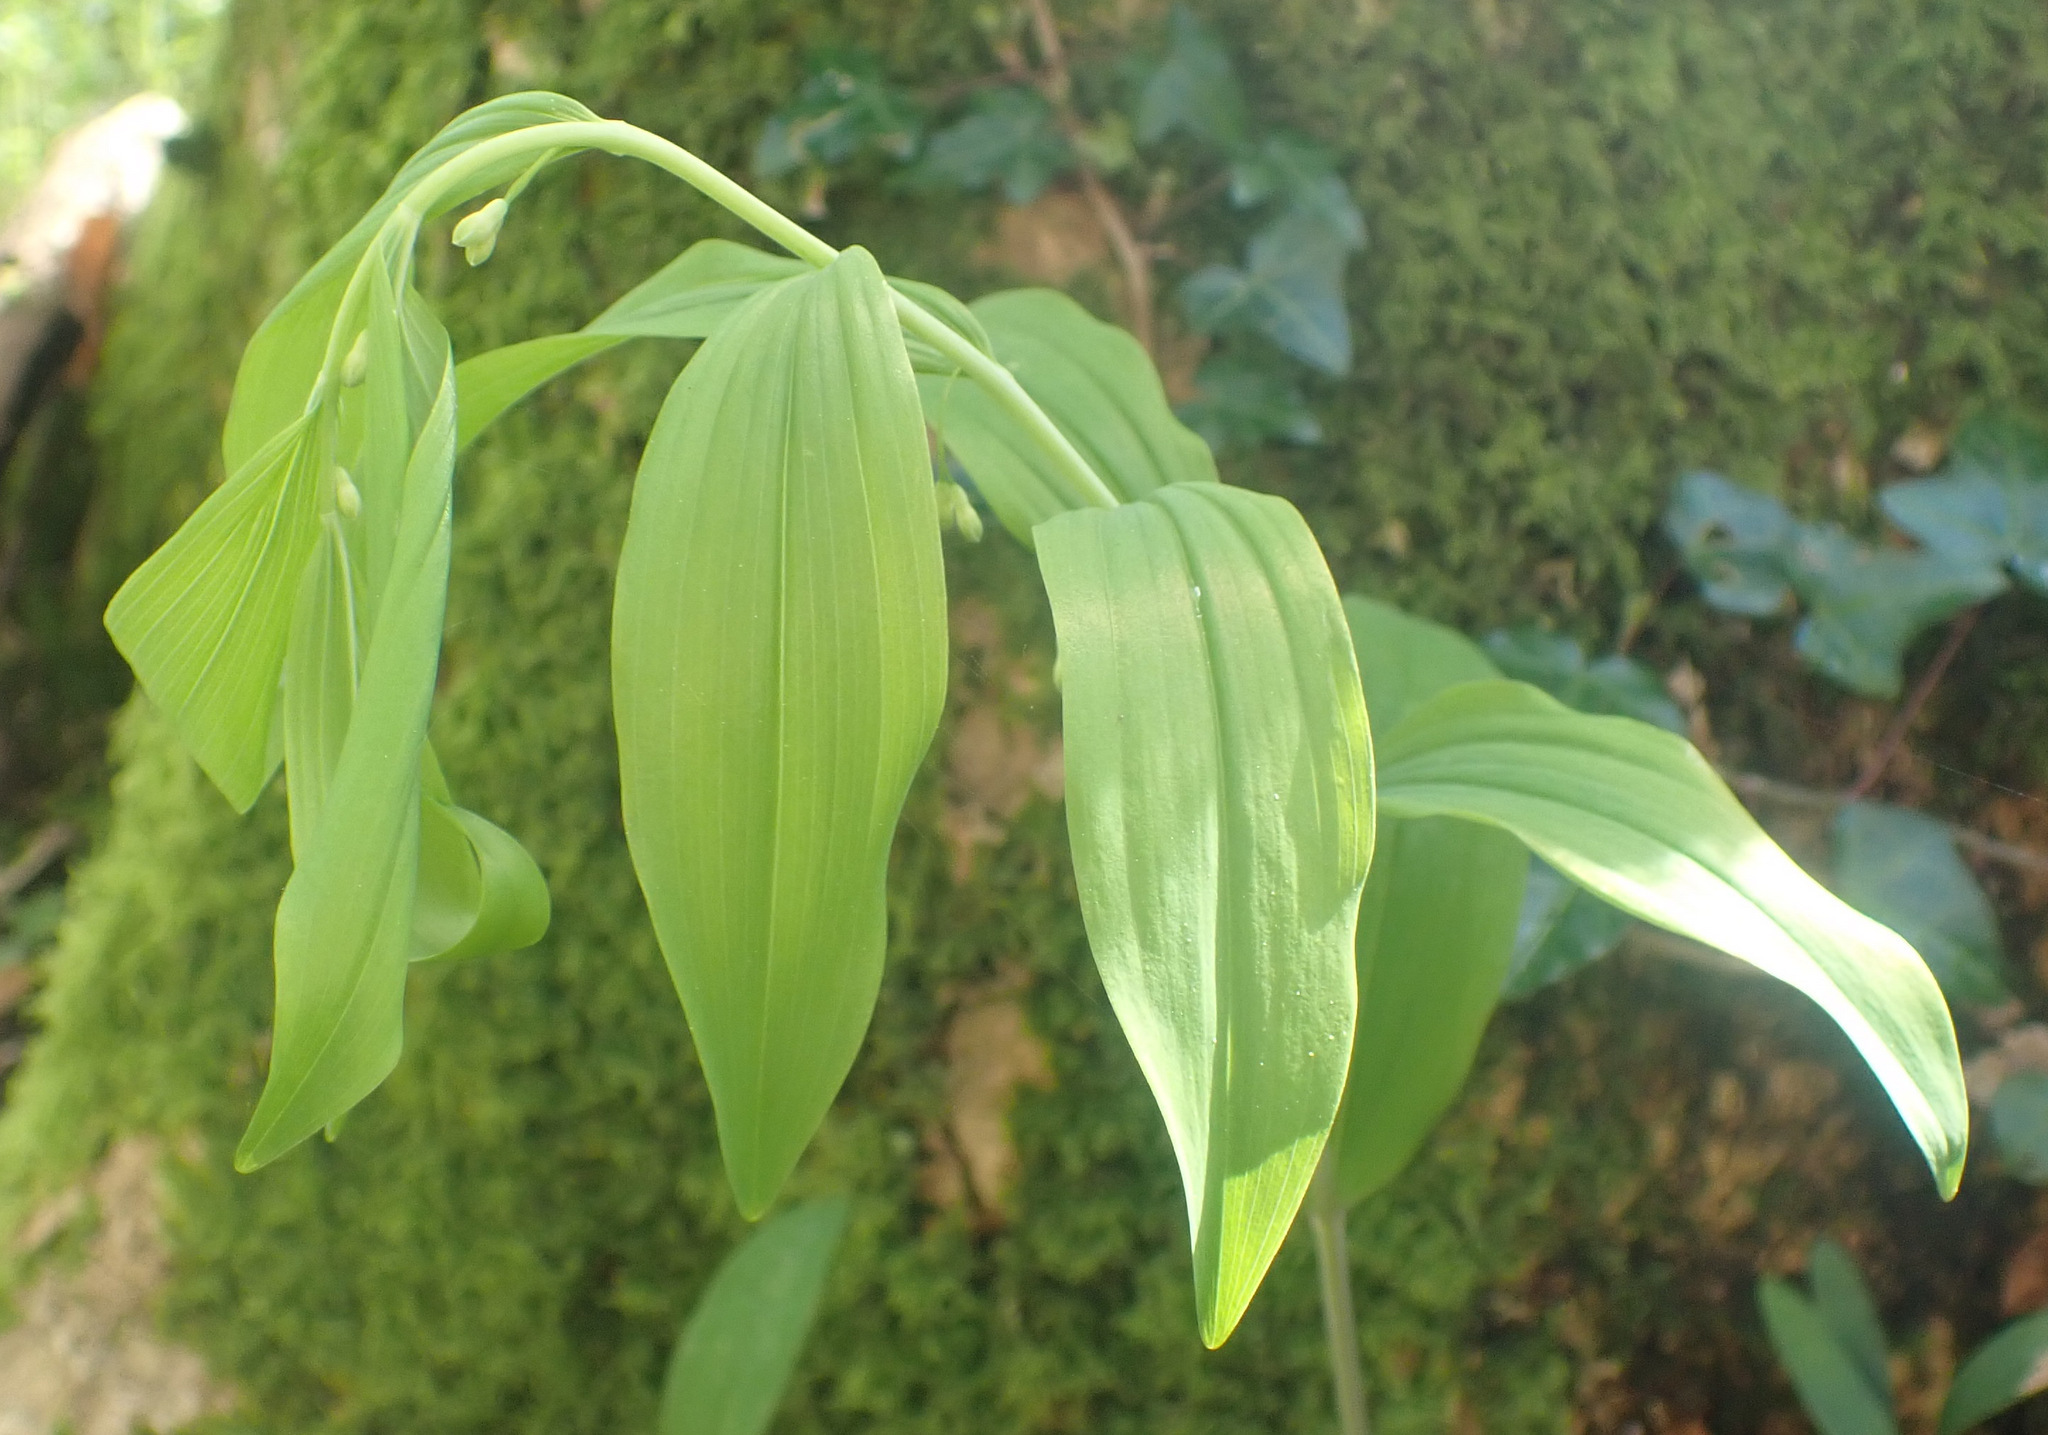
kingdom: Plantae
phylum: Tracheophyta
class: Liliopsida
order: Asparagales
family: Asparagaceae
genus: Polygonatum
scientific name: Polygonatum multiflorum
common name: Solomon's-seal
